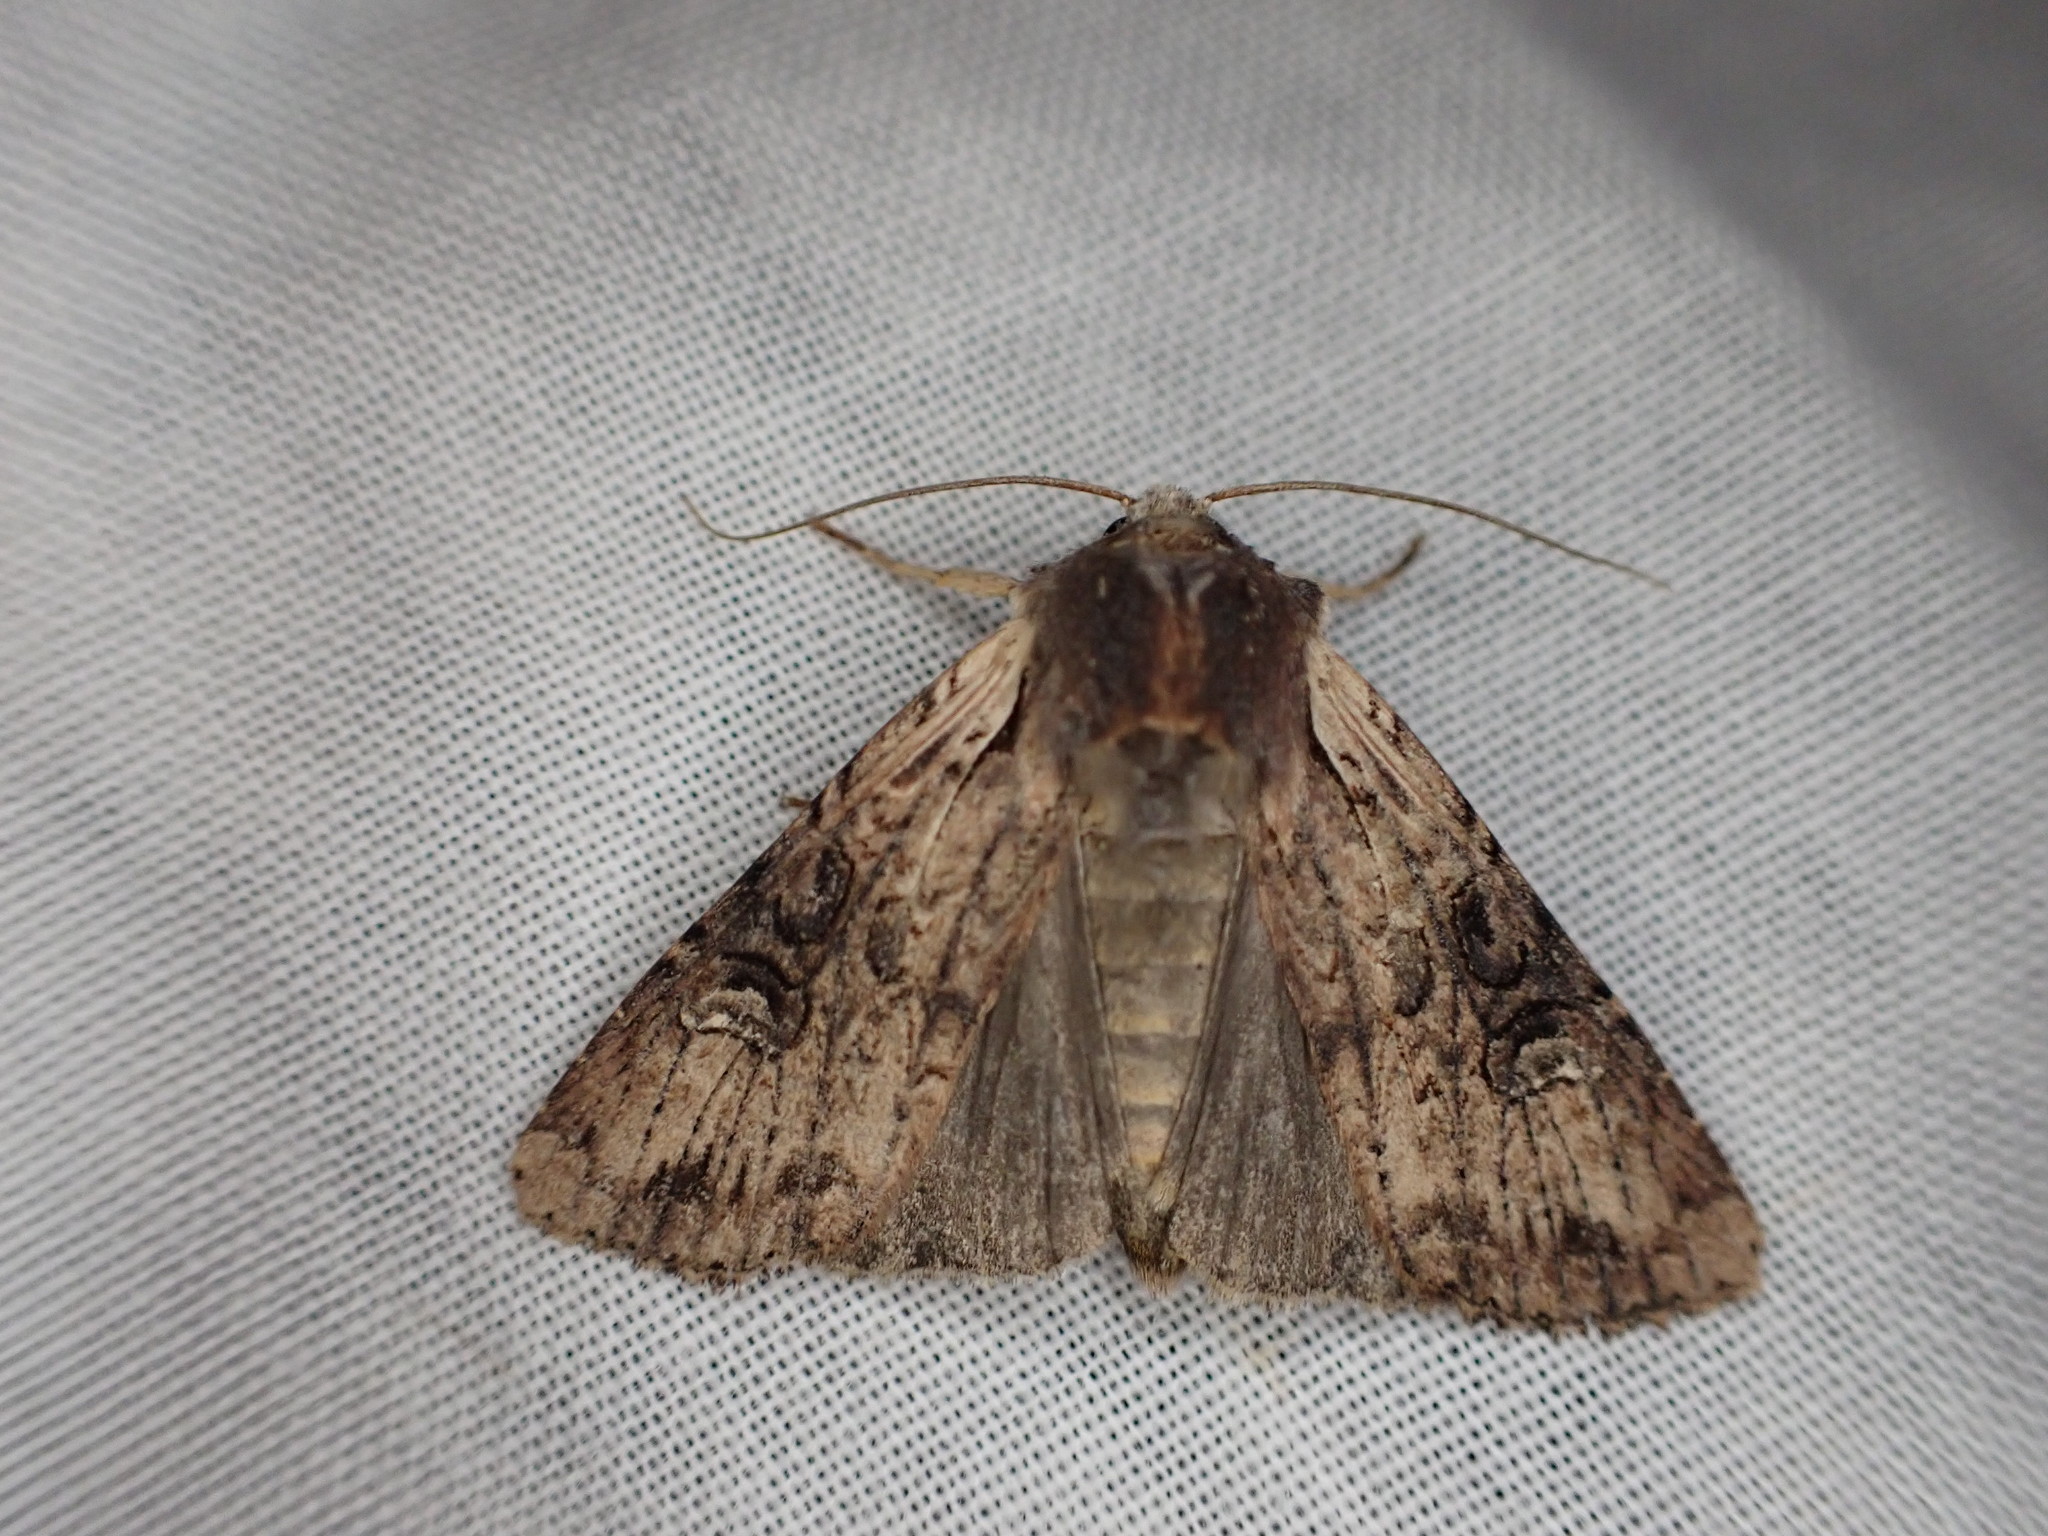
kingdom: Animalia
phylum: Arthropoda
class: Insecta
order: Lepidoptera
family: Noctuidae
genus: Ichneutica
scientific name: Ichneutica omoplaca
